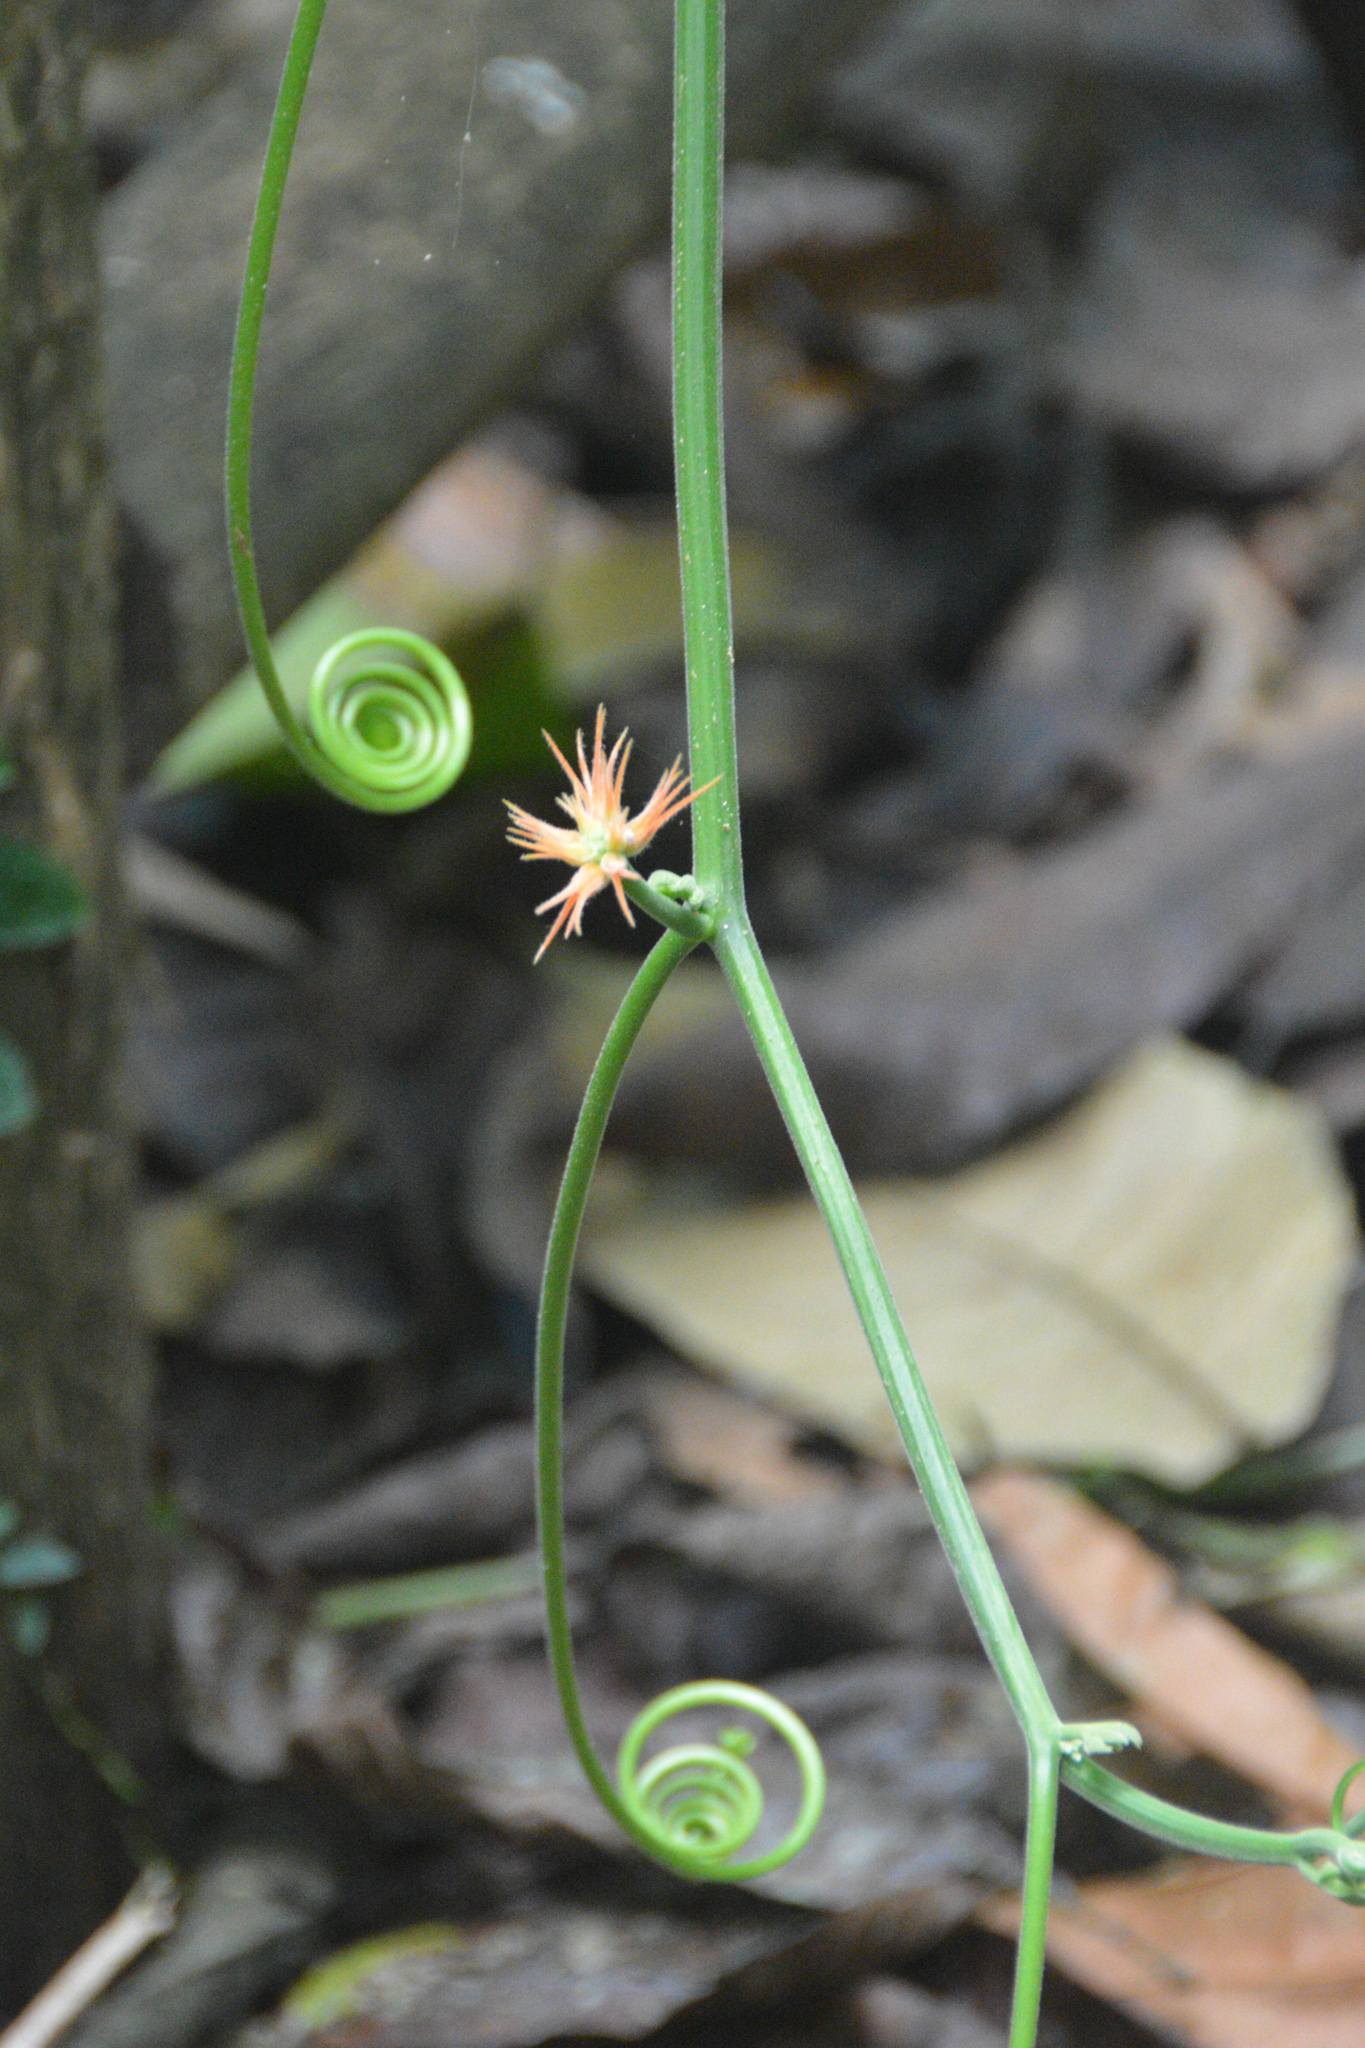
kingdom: Plantae
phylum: Tracheophyta
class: Magnoliopsida
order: Cucurbitales
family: Cucurbitaceae
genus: Gurania
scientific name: Gurania makoyana
